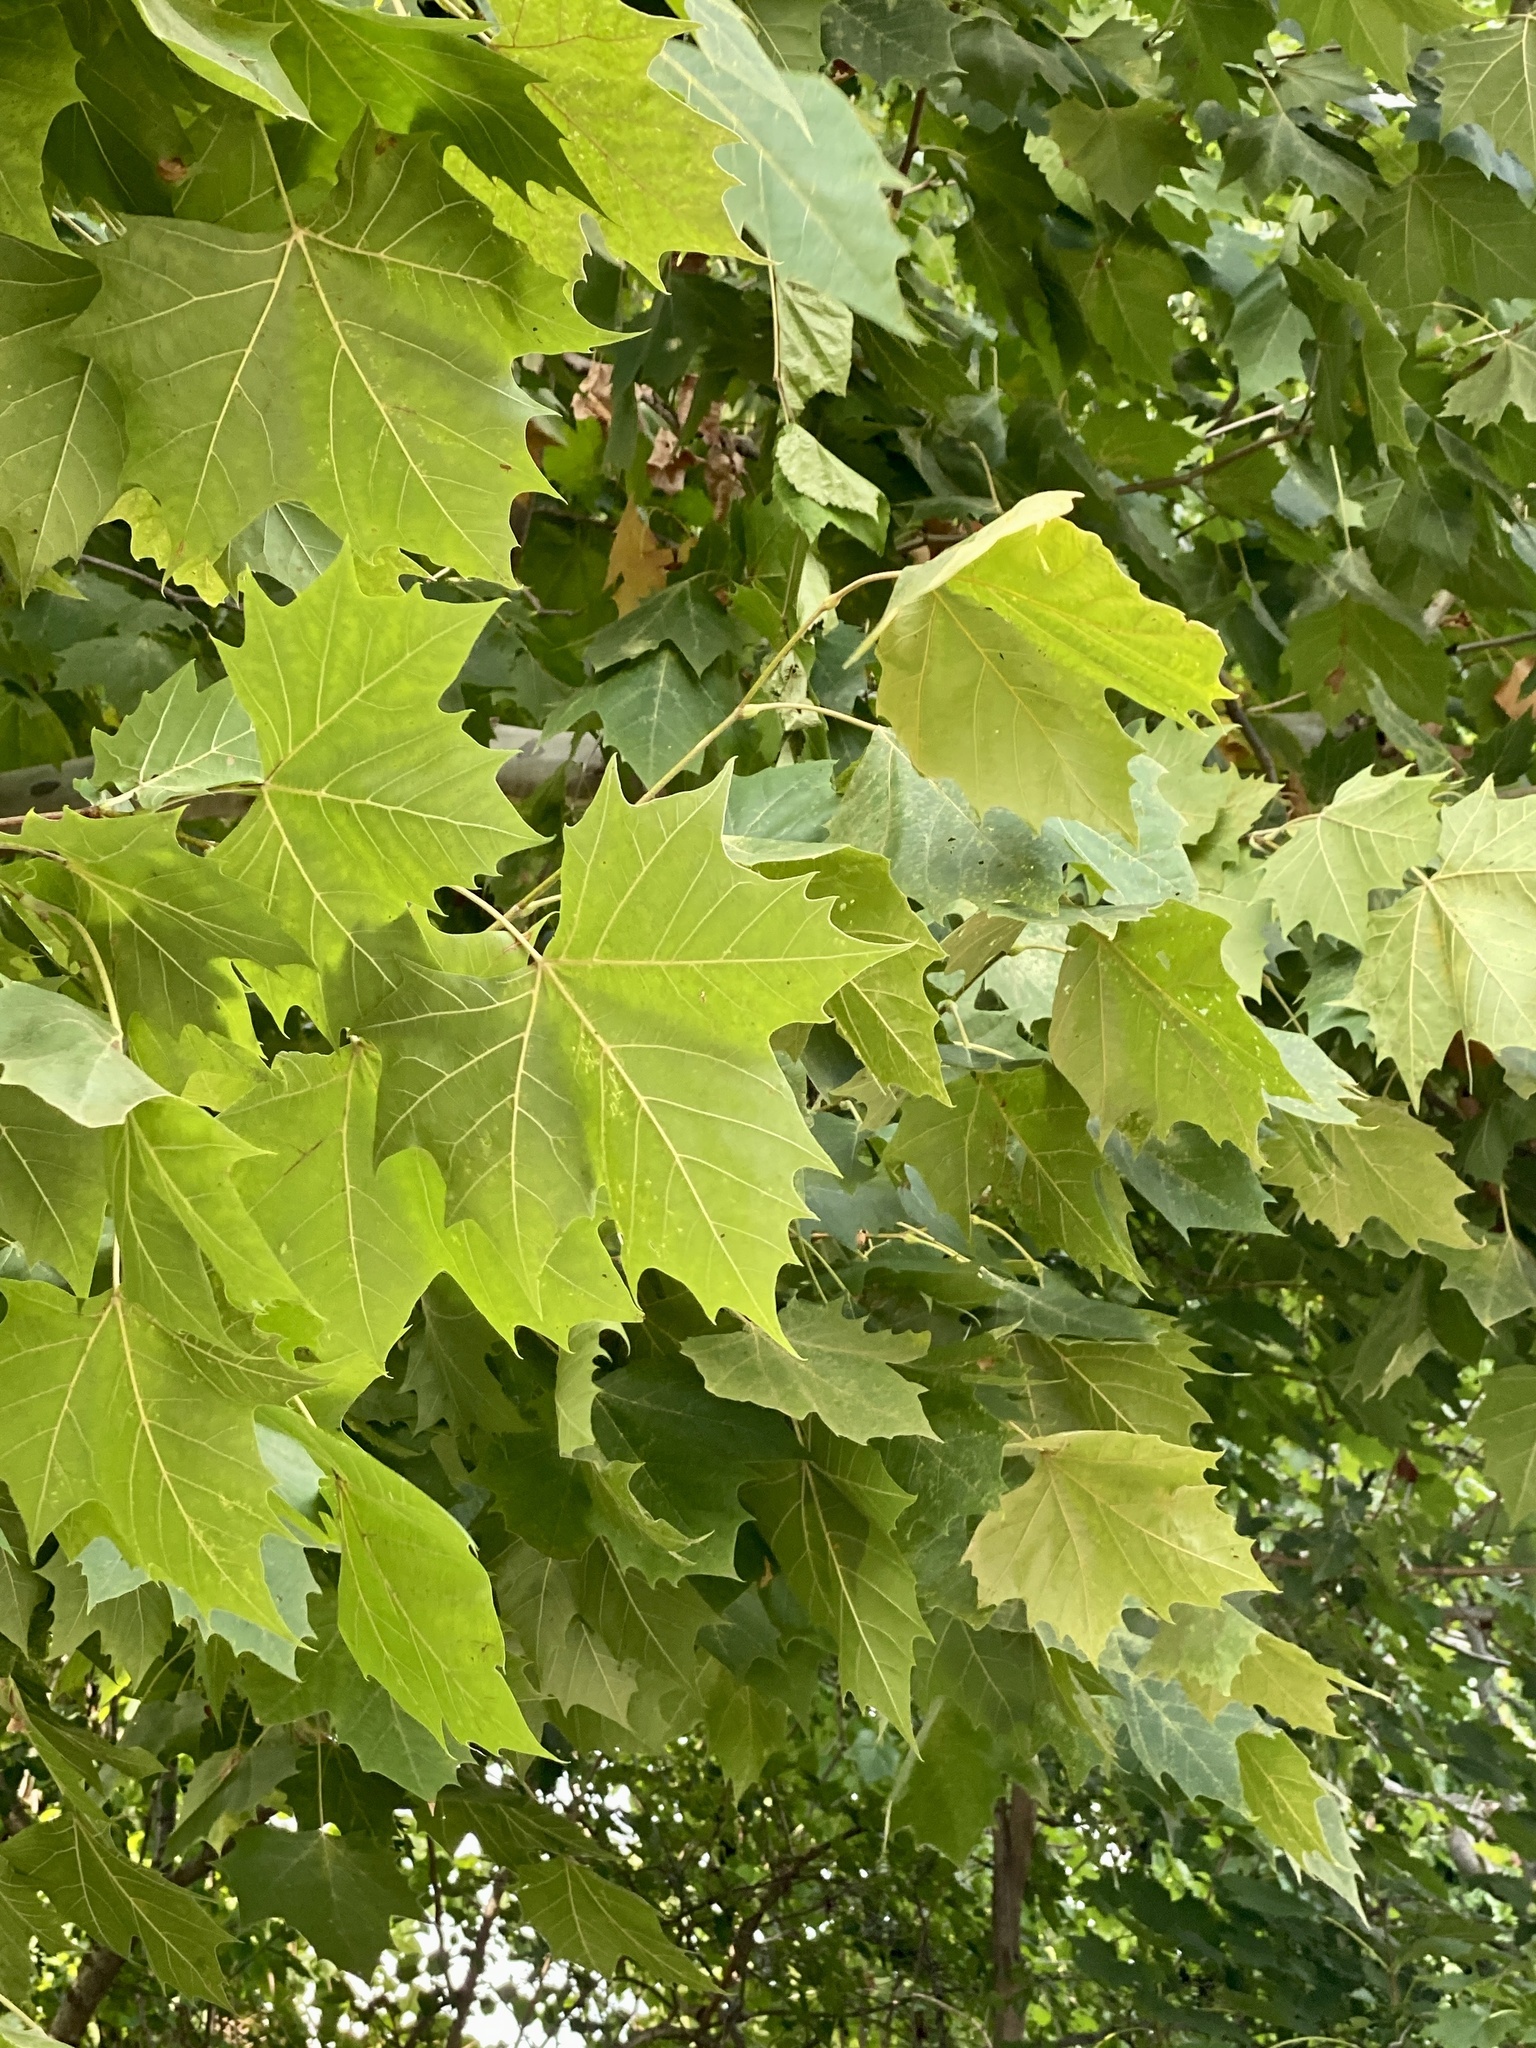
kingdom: Plantae
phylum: Tracheophyta
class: Magnoliopsida
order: Proteales
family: Platanaceae
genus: Platanus
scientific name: Platanus occidentalis
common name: American sycamore
